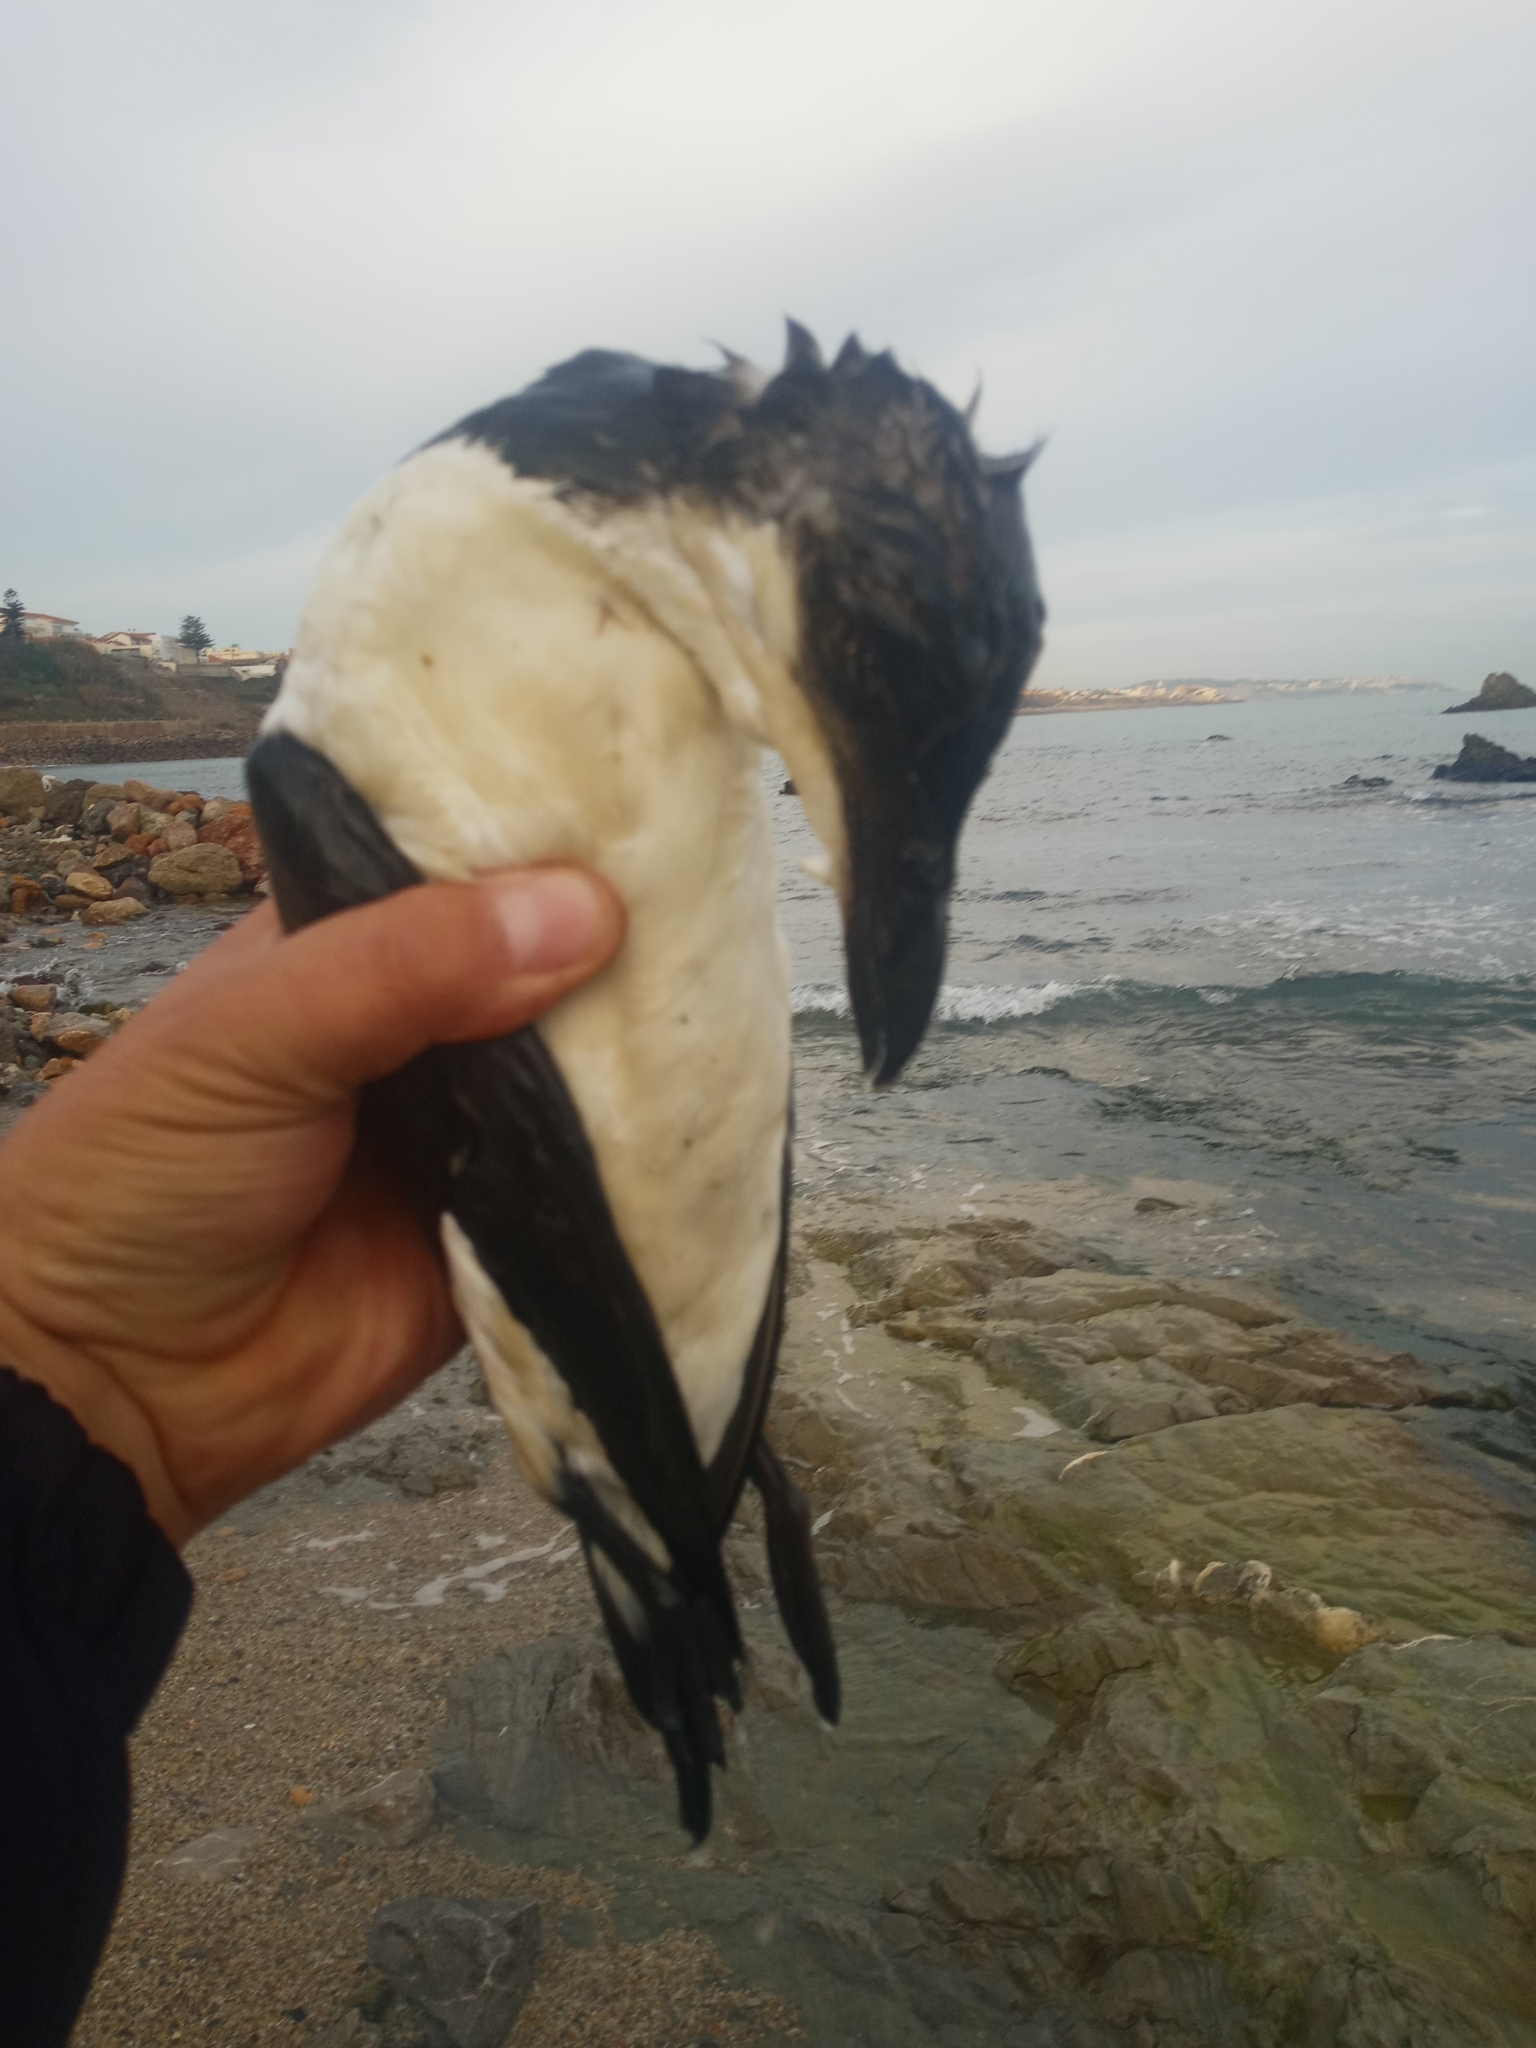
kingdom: Animalia
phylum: Chordata
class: Aves
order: Charadriiformes
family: Alcidae
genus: Alca
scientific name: Alca torda
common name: Razorbill
